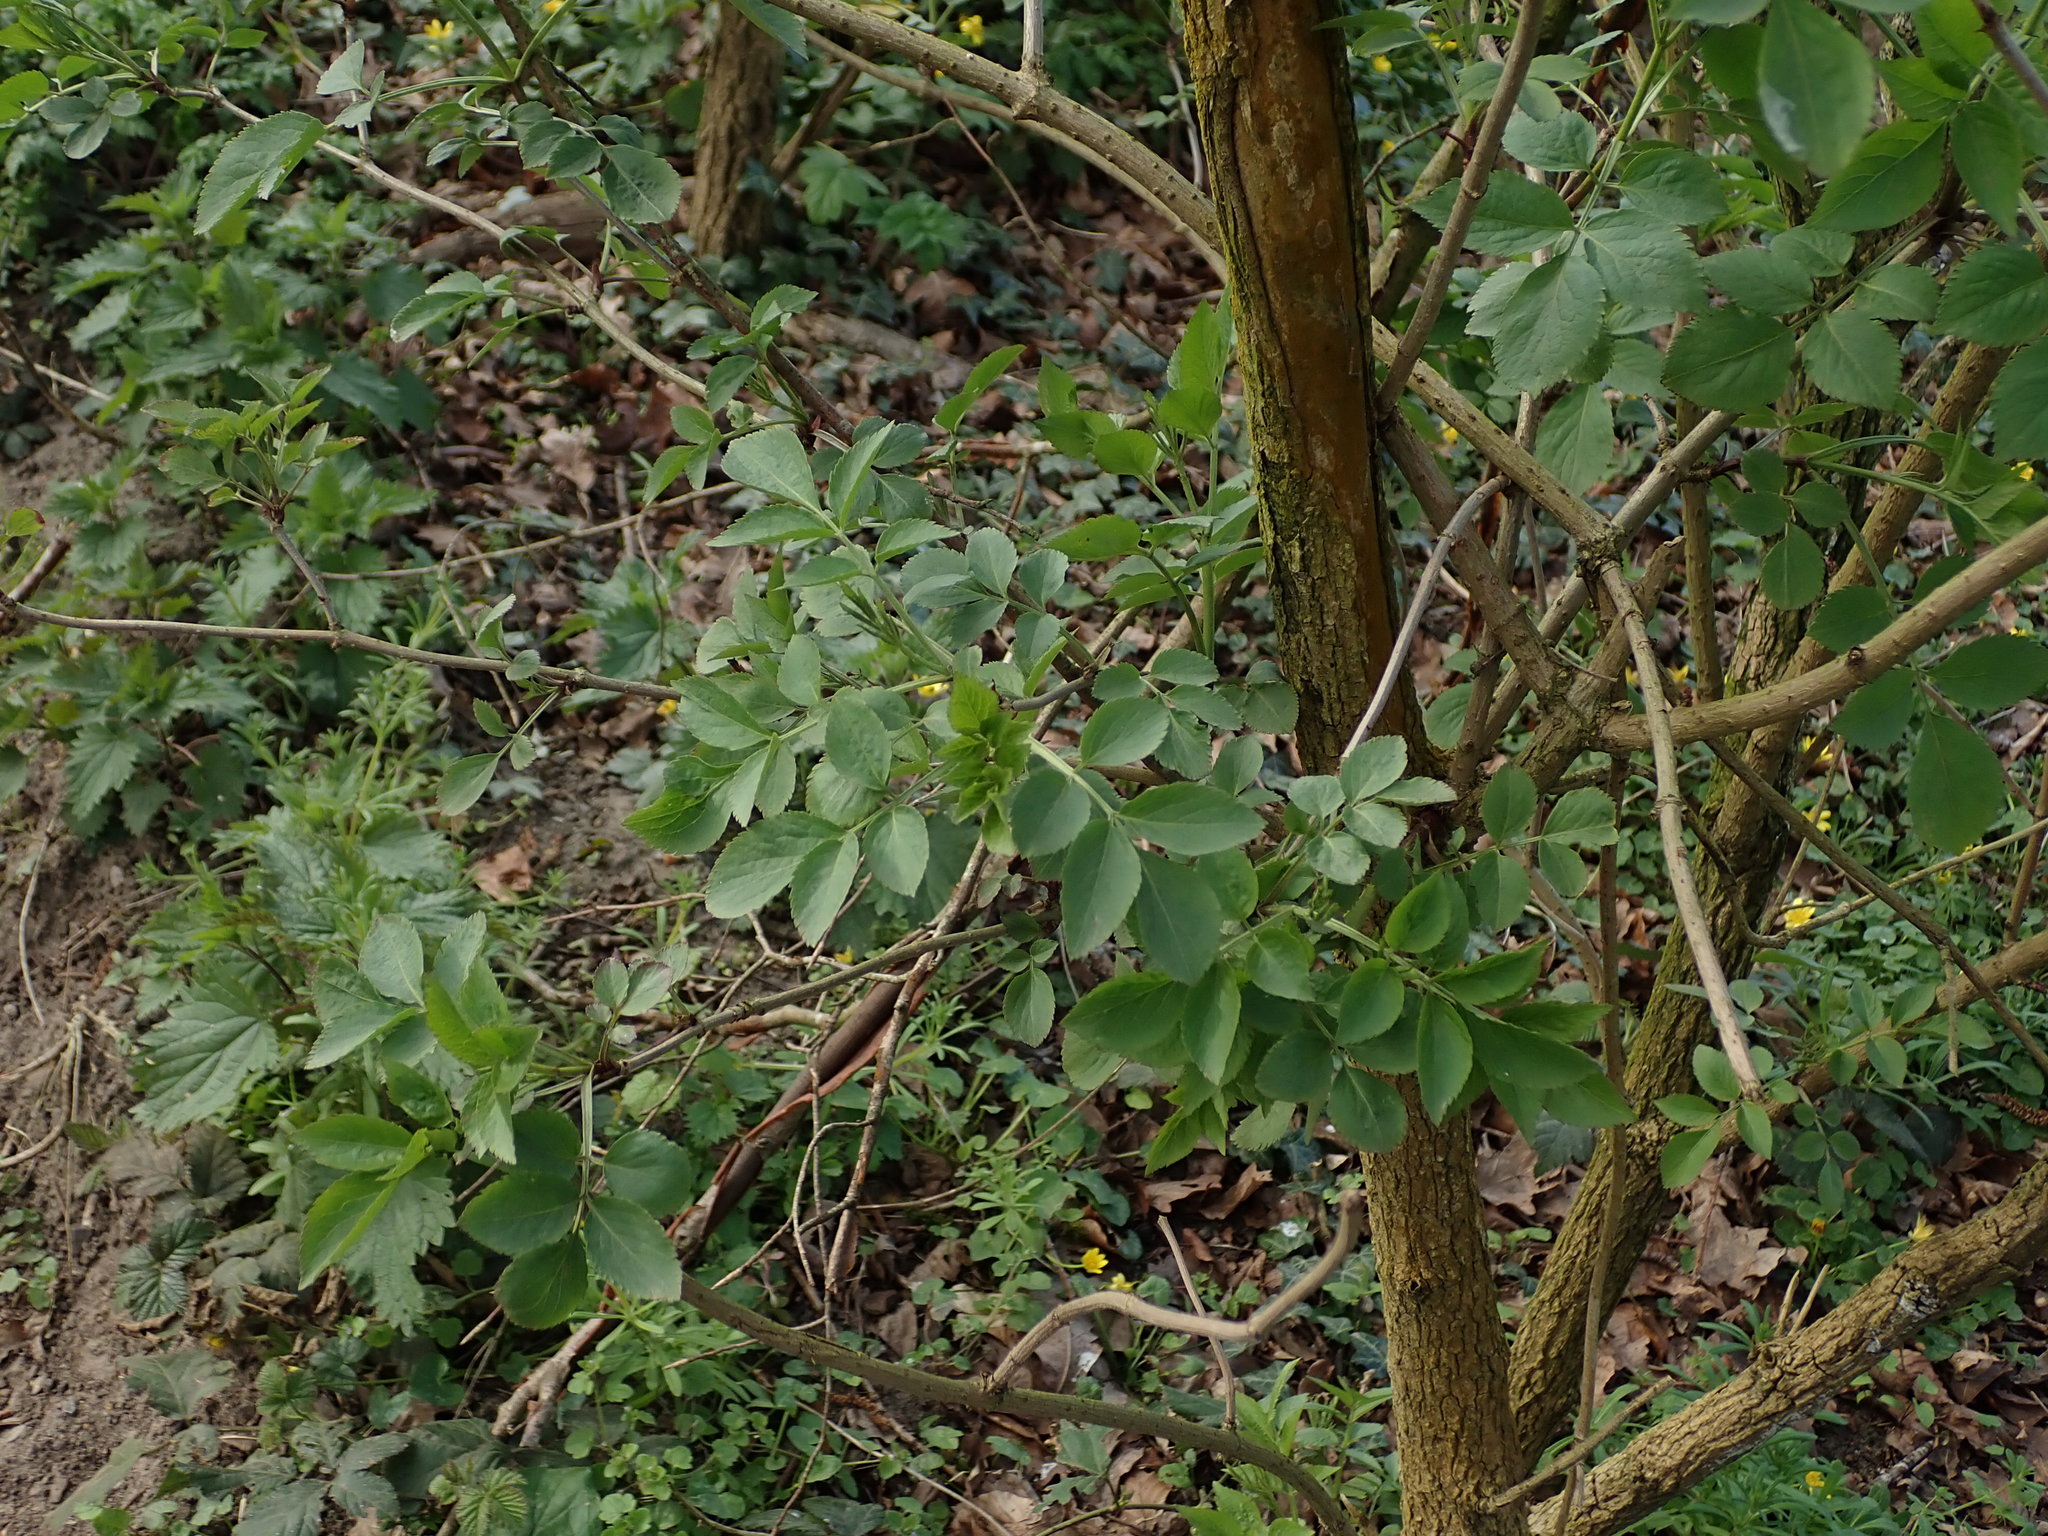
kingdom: Plantae
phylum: Tracheophyta
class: Magnoliopsida
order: Dipsacales
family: Viburnaceae
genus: Sambucus
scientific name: Sambucus nigra
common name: Elder
